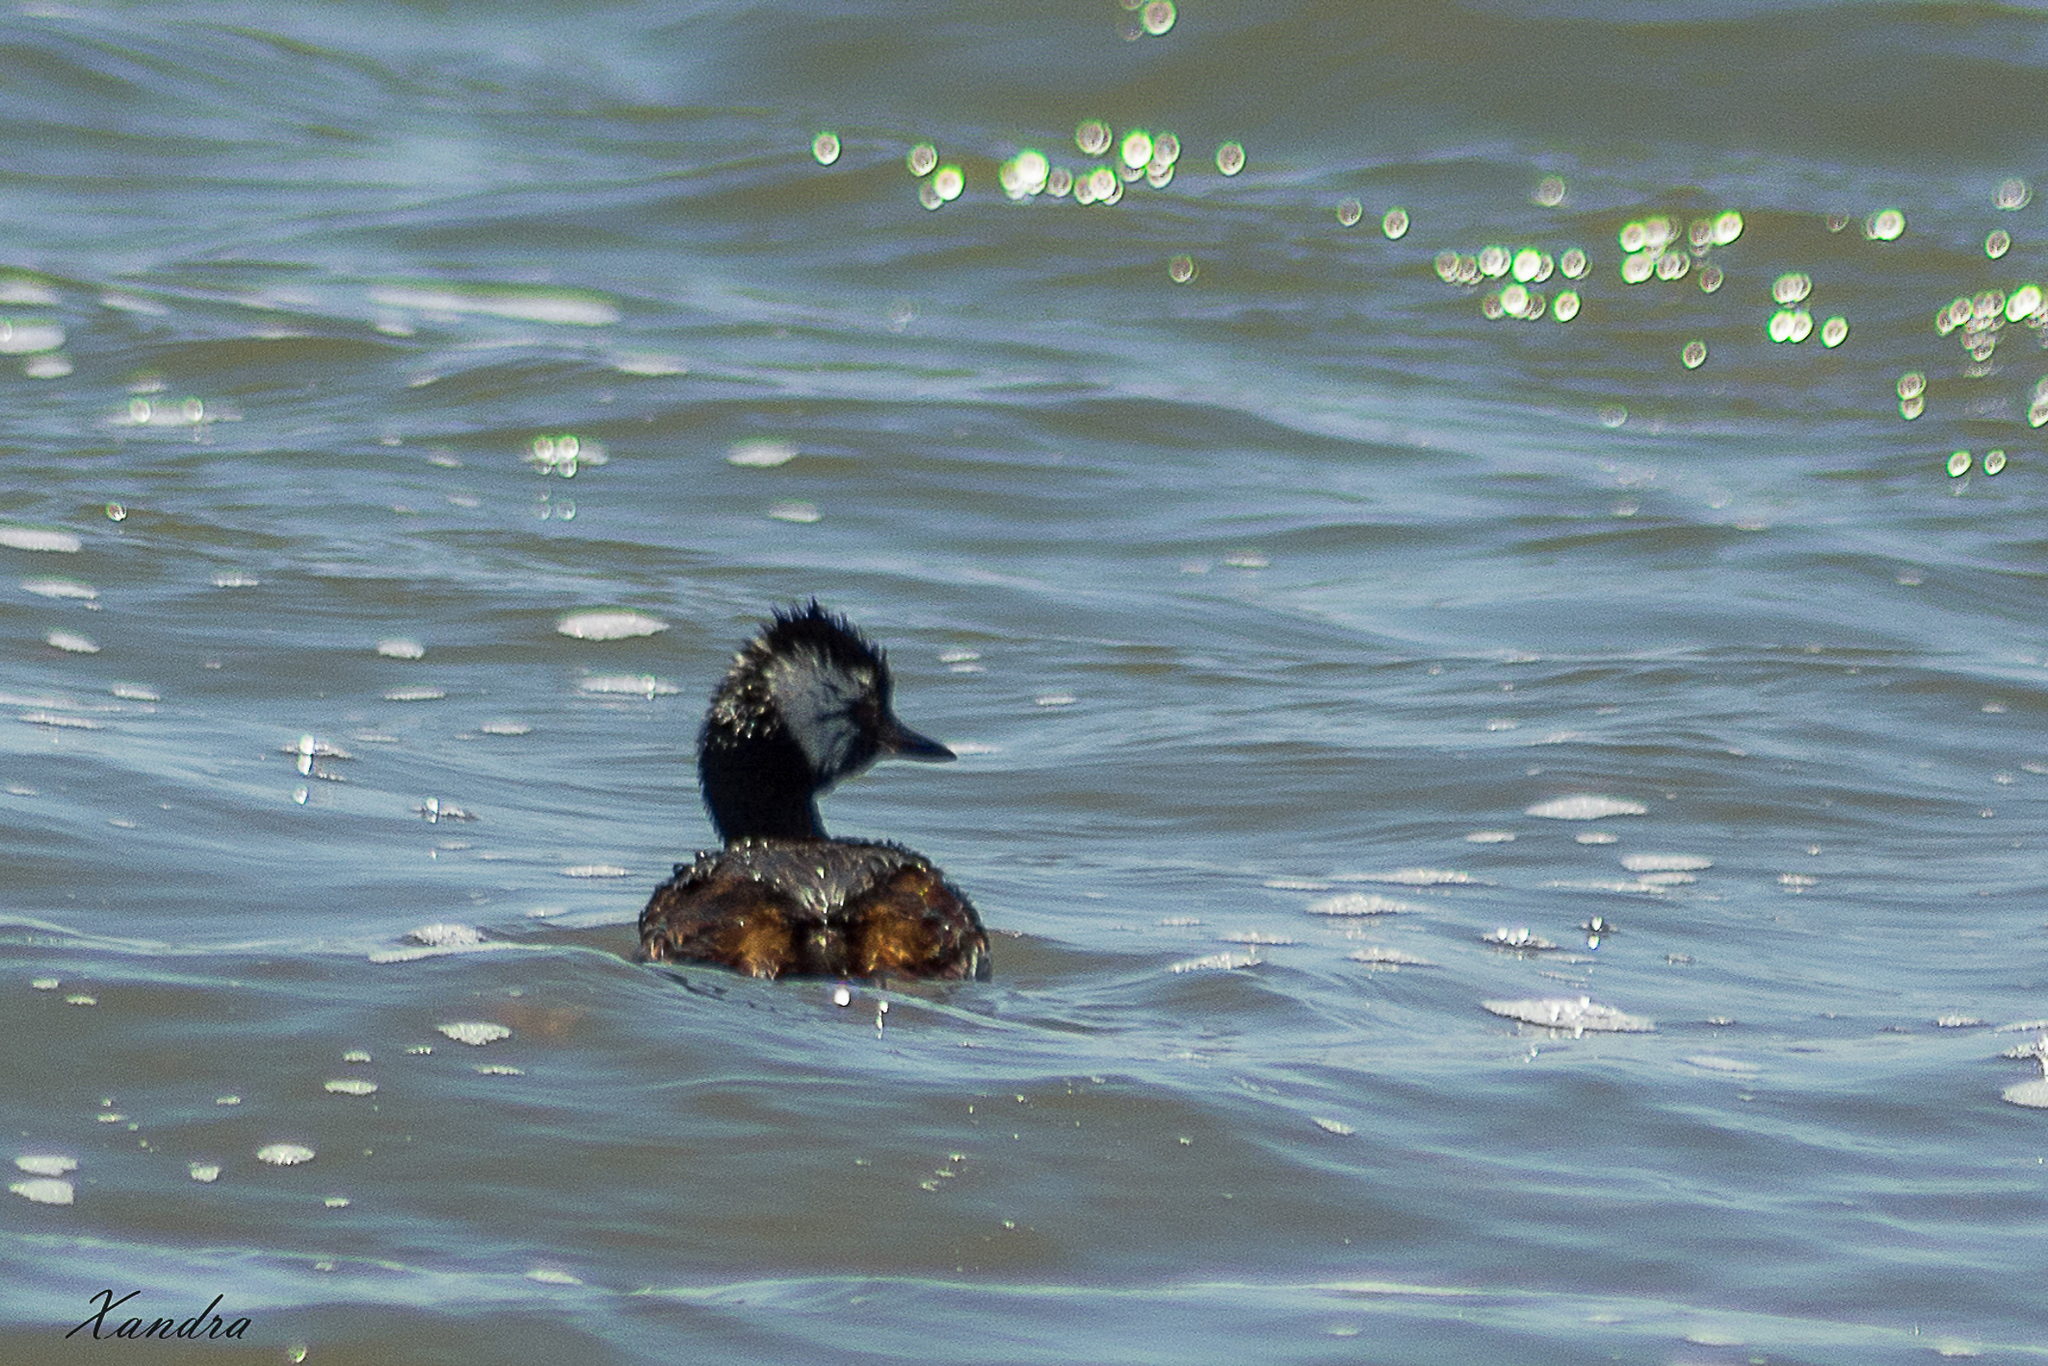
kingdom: Animalia
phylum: Chordata
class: Aves
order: Podicipediformes
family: Podicipedidae
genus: Rollandia
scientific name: Rollandia rolland
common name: White-tufted grebe
